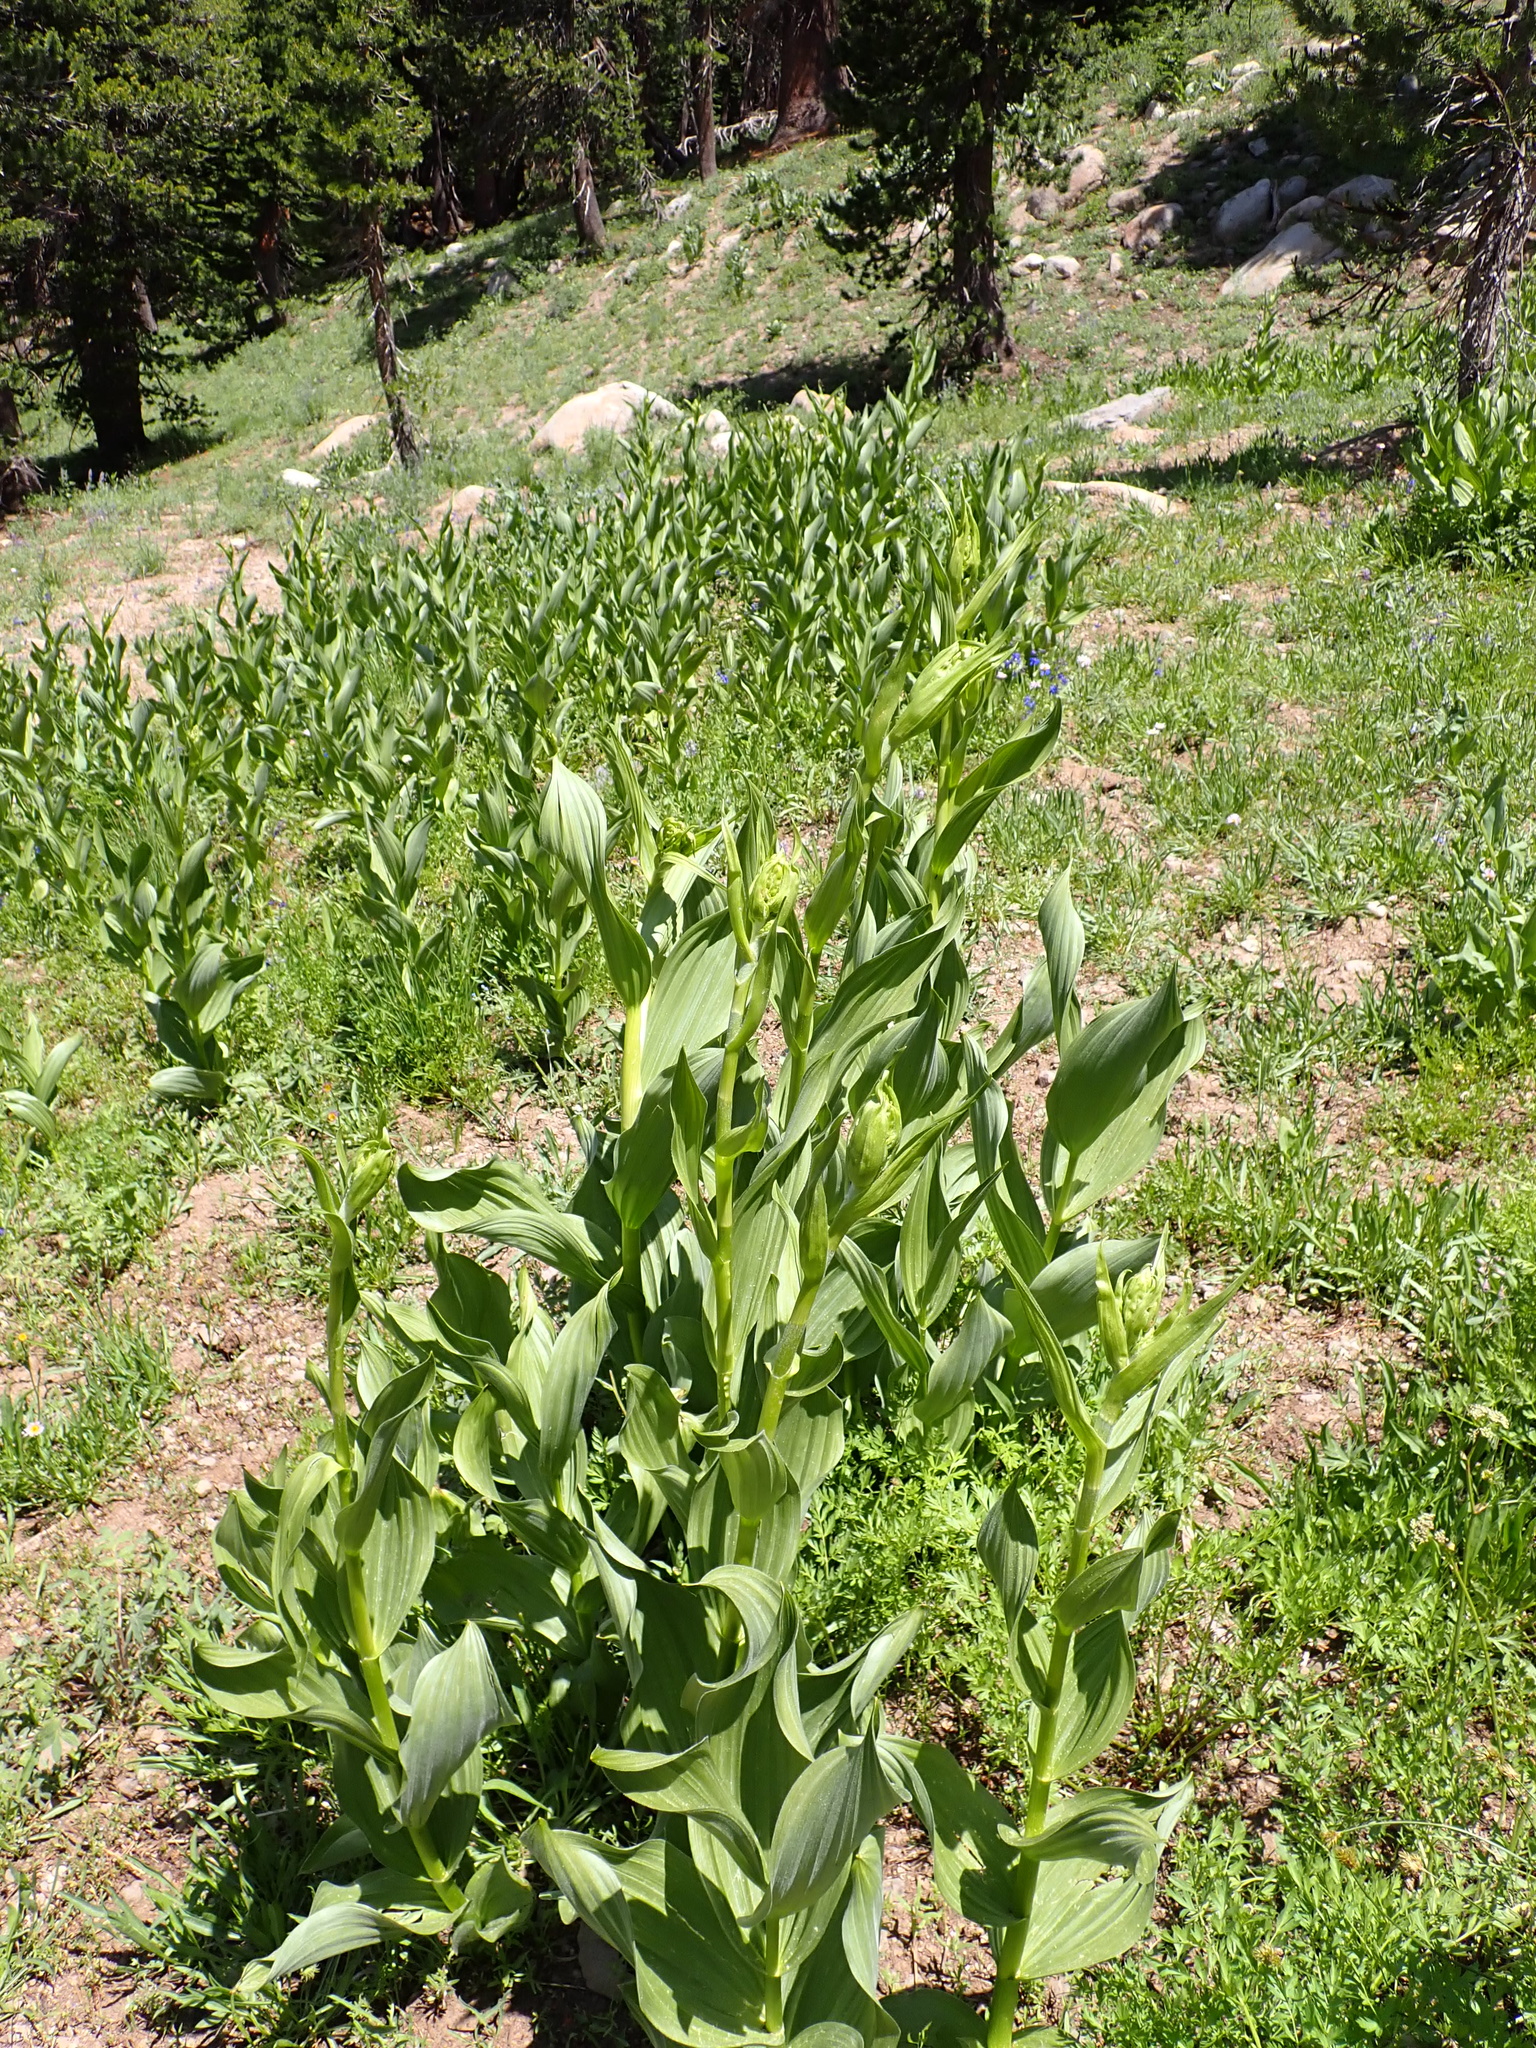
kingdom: Plantae
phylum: Tracheophyta
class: Liliopsida
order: Liliales
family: Melanthiaceae
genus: Veratrum
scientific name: Veratrum californicum
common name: California veratrum
